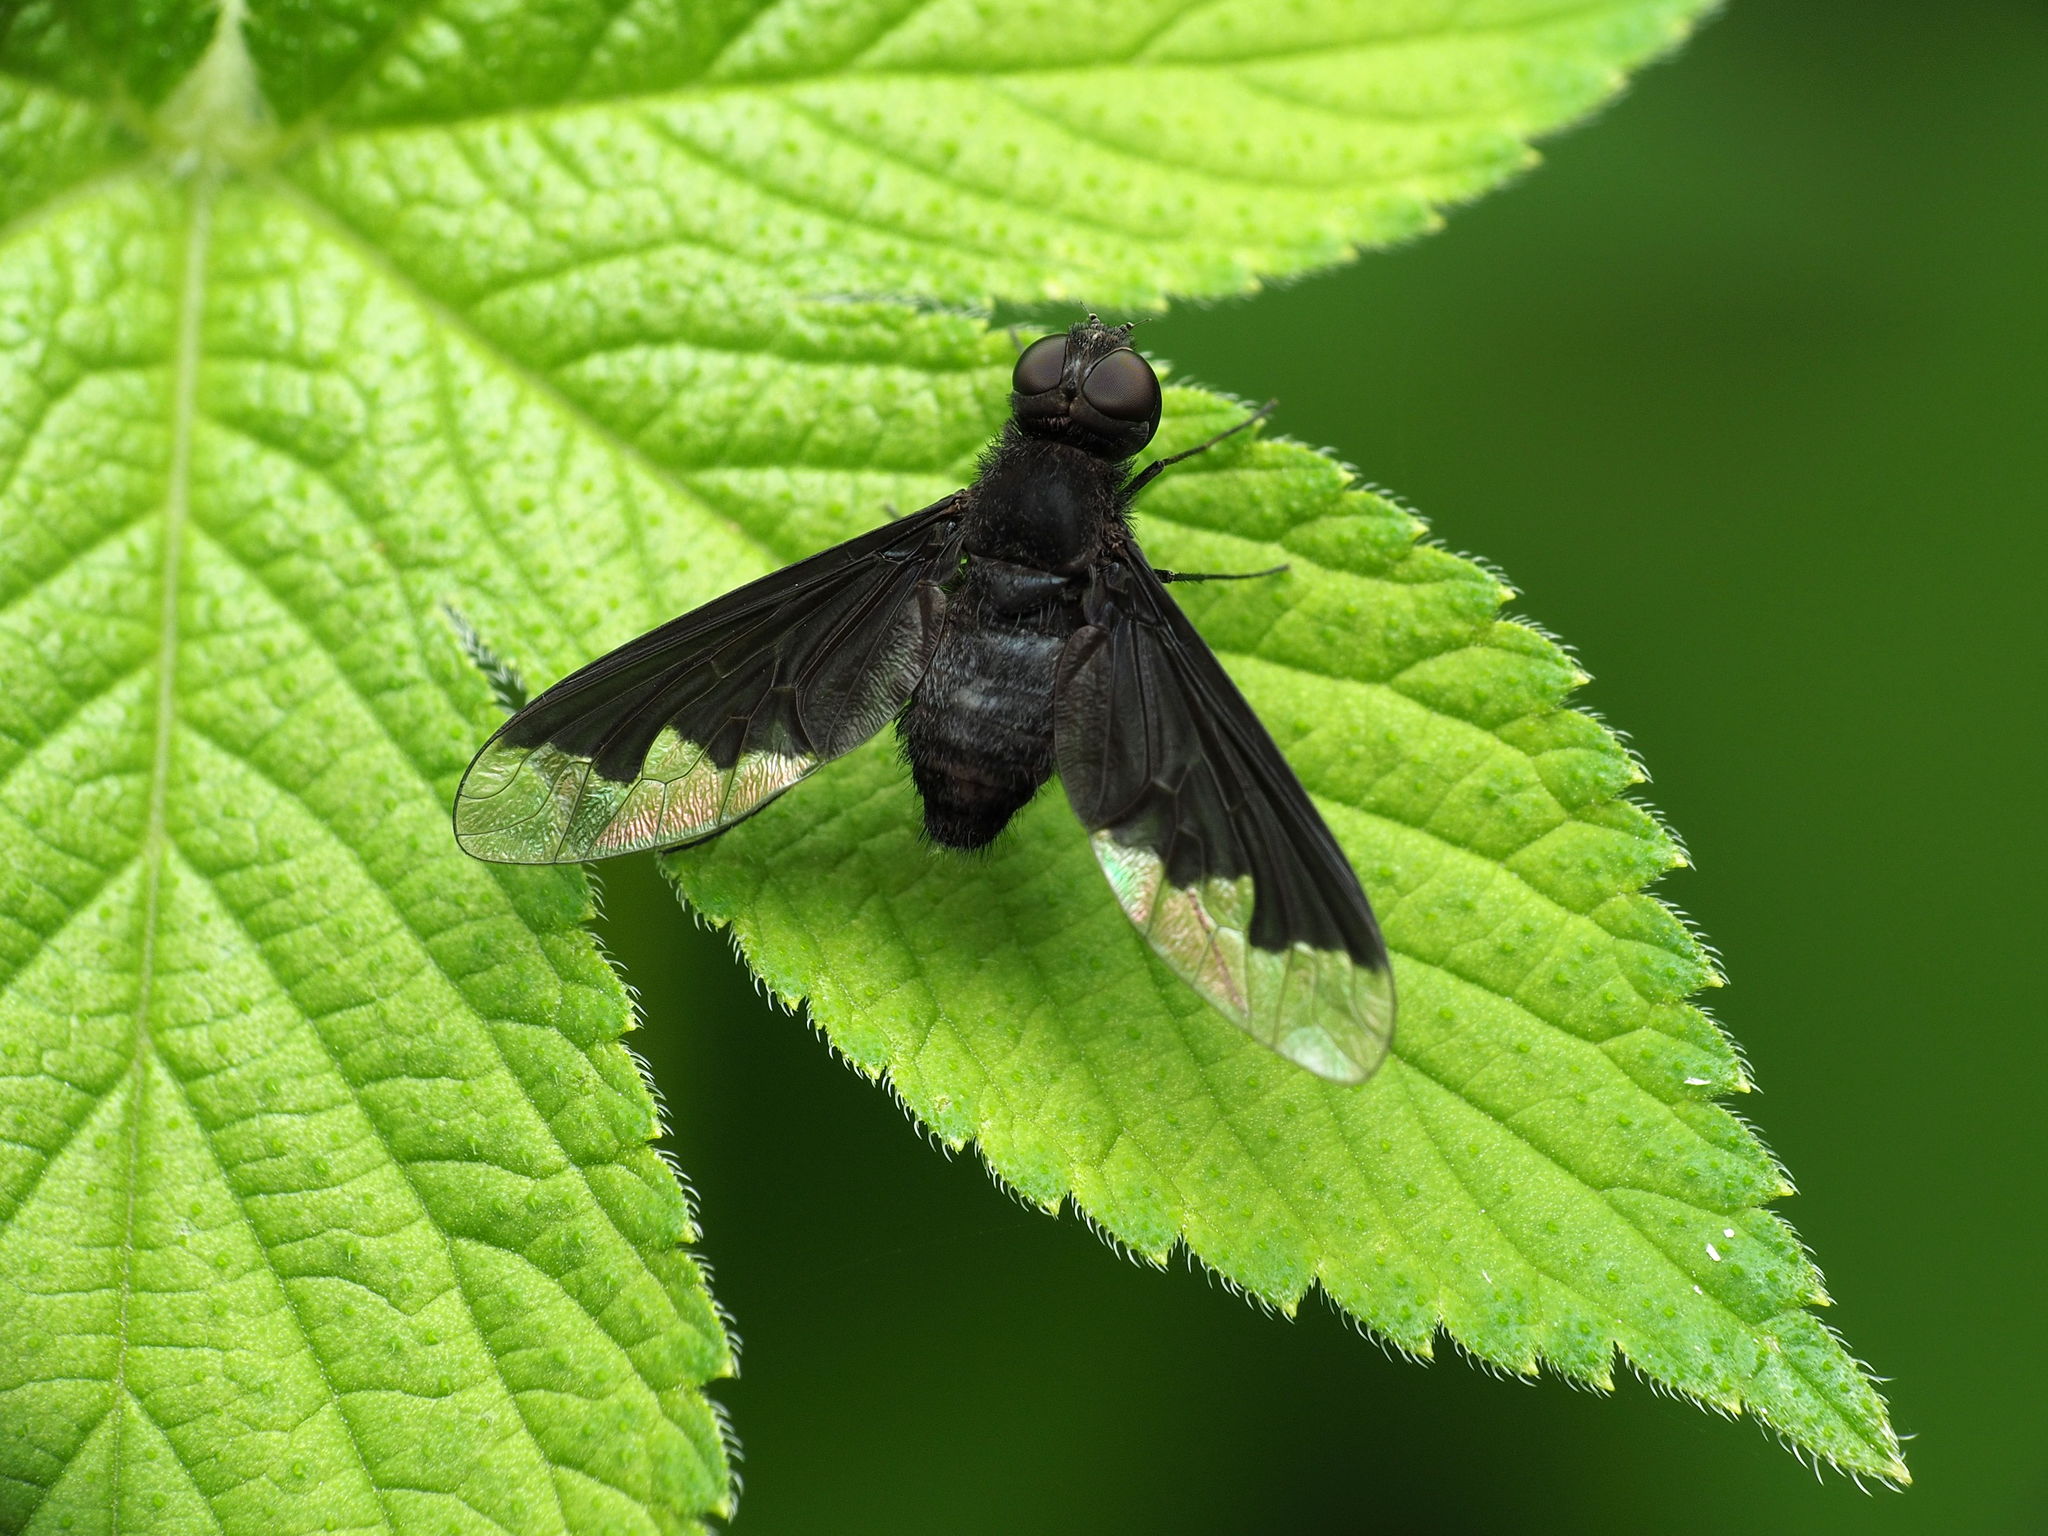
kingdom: Animalia
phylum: Arthropoda
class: Insecta
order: Diptera
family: Bombyliidae
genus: Anthrax
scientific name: Anthrax analis
